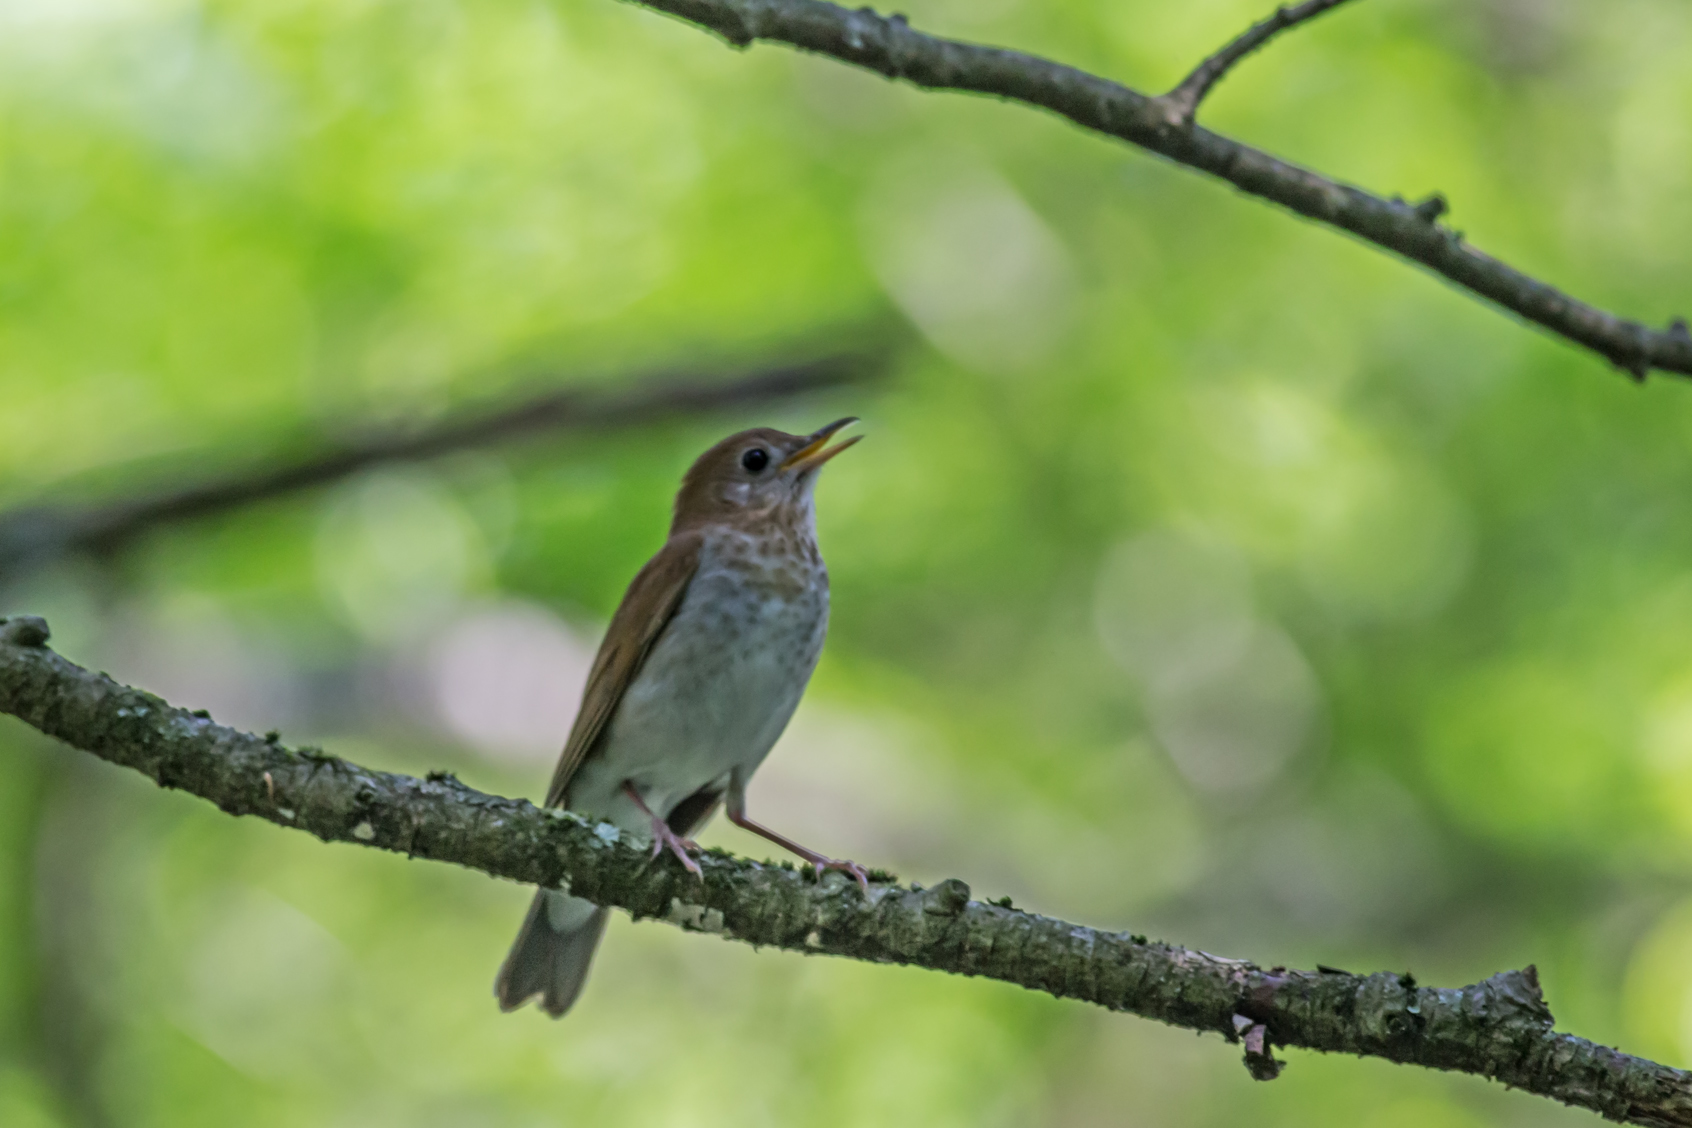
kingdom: Animalia
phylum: Chordata
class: Aves
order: Passeriformes
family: Turdidae
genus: Catharus
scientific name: Catharus fuscescens
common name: Veery
